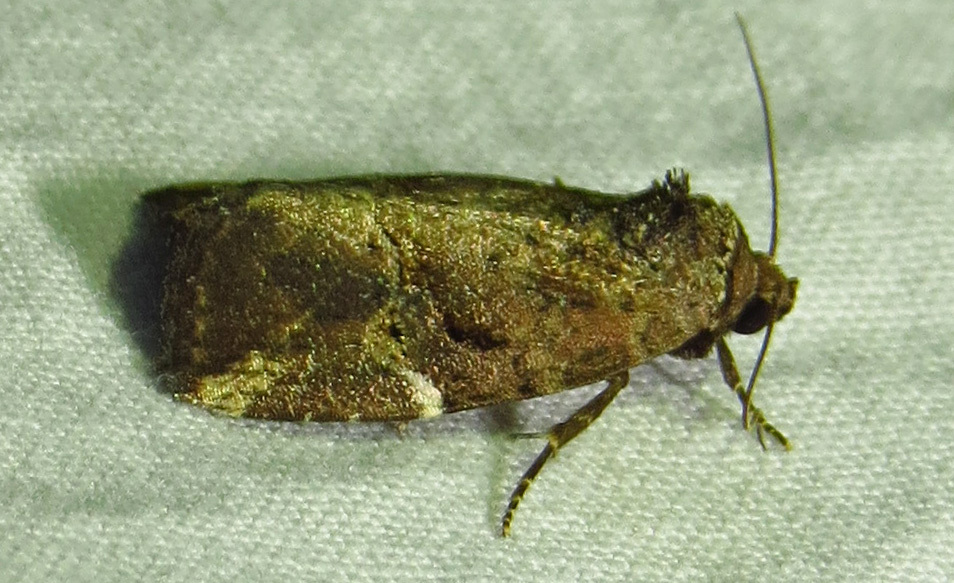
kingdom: Animalia
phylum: Arthropoda
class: Insecta
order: Lepidoptera
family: Noctuidae
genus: Elaphria
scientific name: Elaphria versicolor
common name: Fir harlequin
